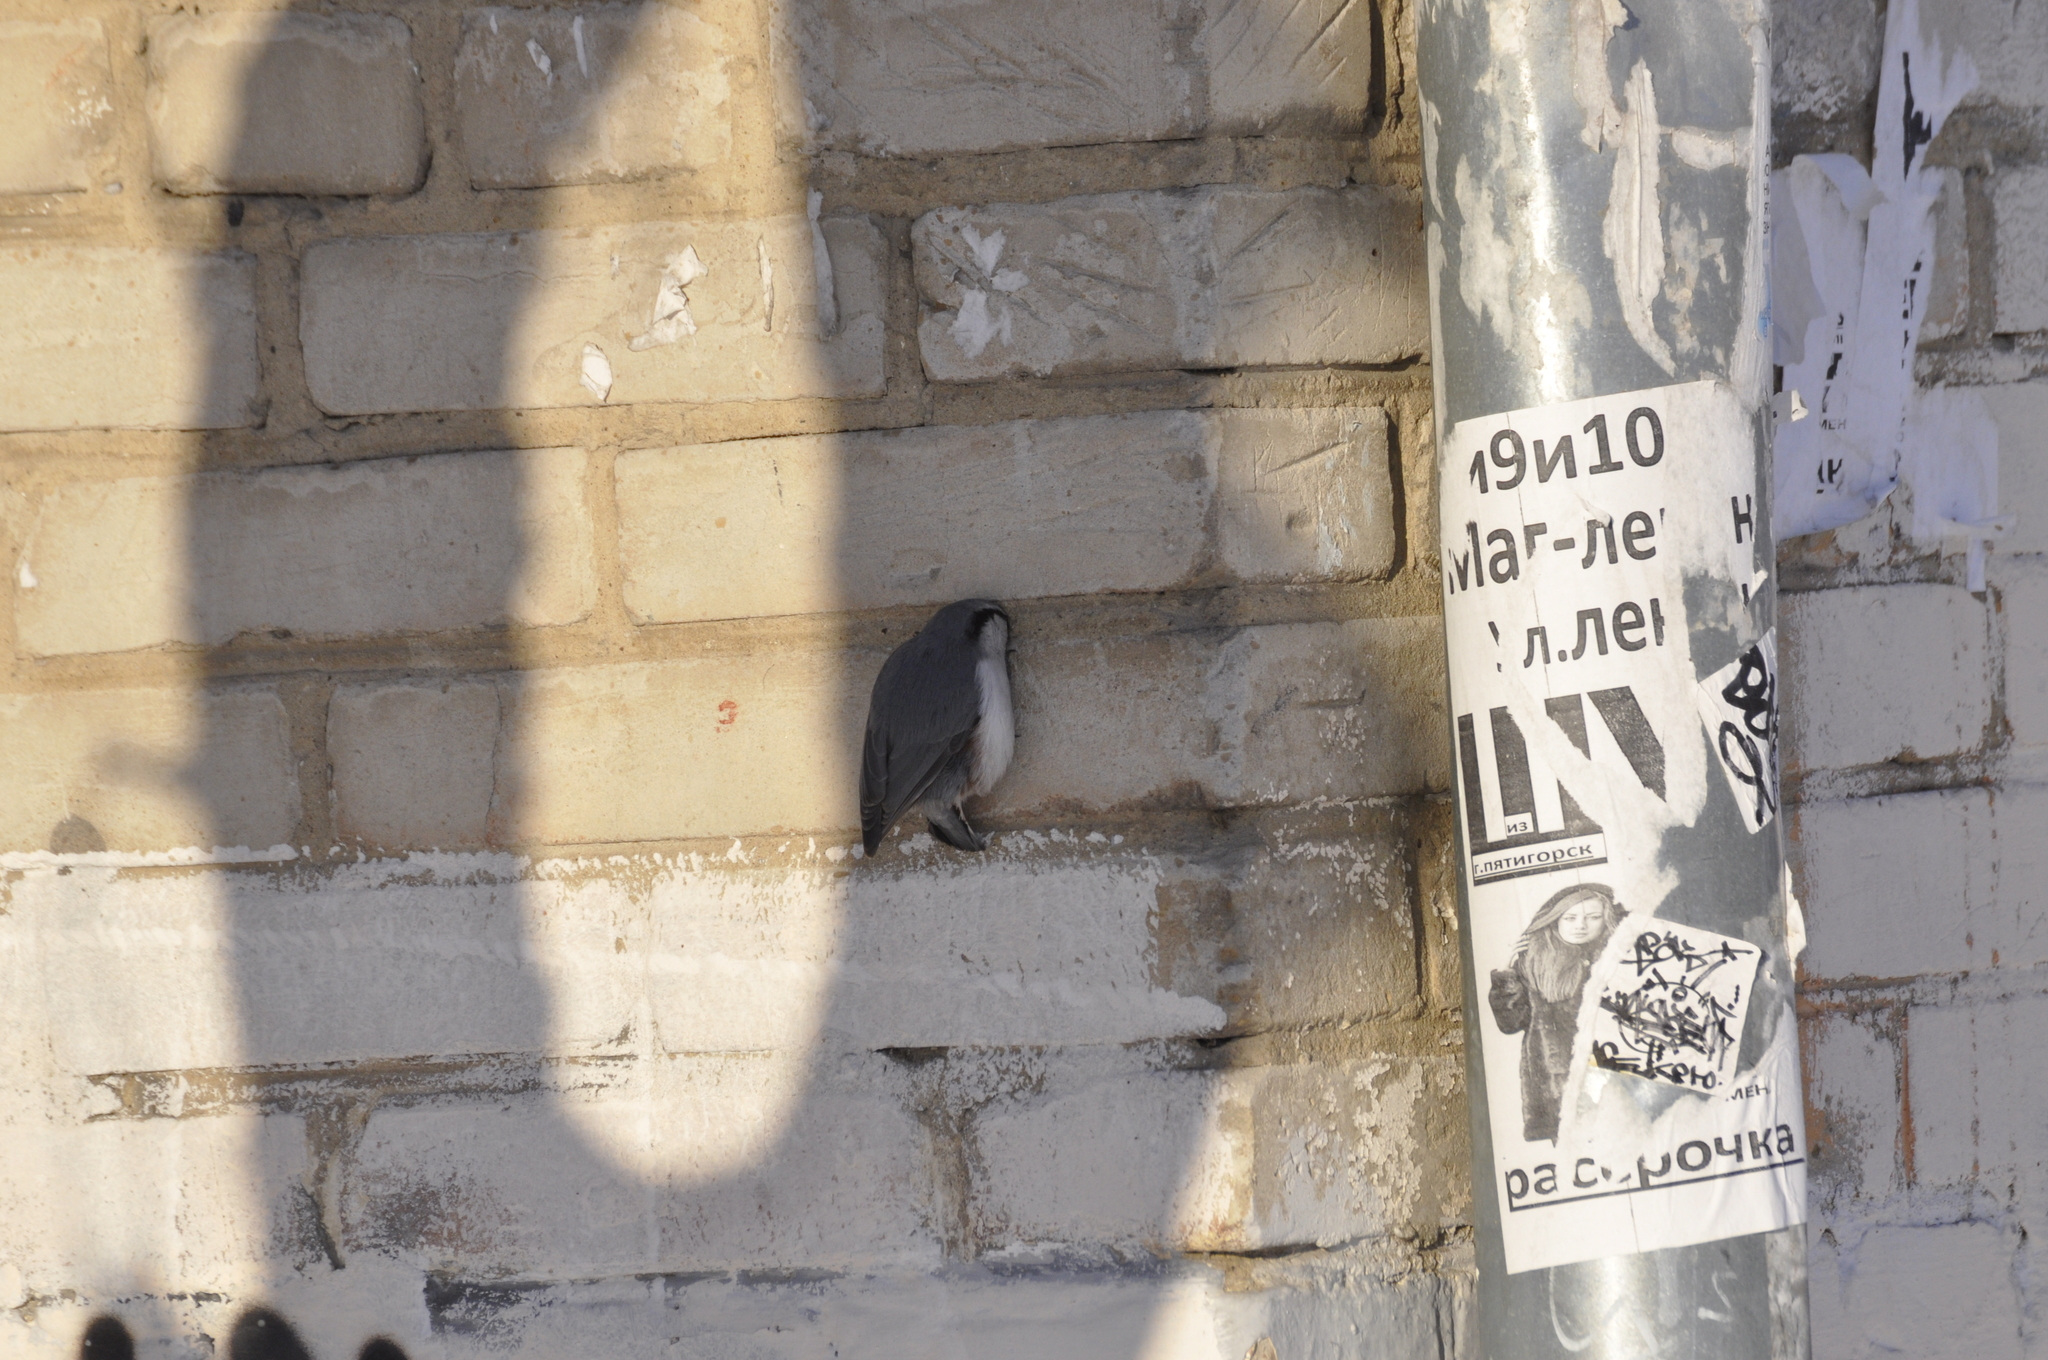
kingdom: Animalia
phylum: Chordata
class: Aves
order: Passeriformes
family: Sittidae
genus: Sitta
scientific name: Sitta europaea
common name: Eurasian nuthatch
